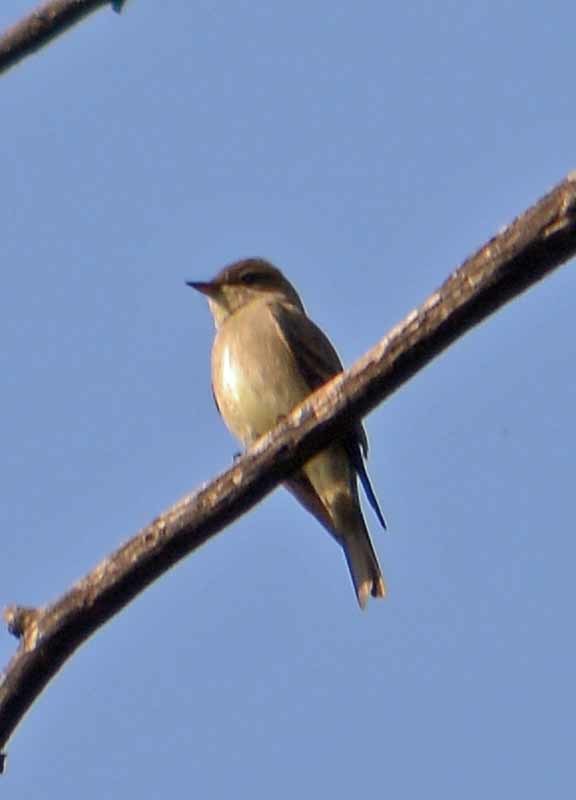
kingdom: Animalia
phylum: Chordata
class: Aves
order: Passeriformes
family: Tyrannidae
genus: Contopus
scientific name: Contopus sordidulus
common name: Western wood-pewee
